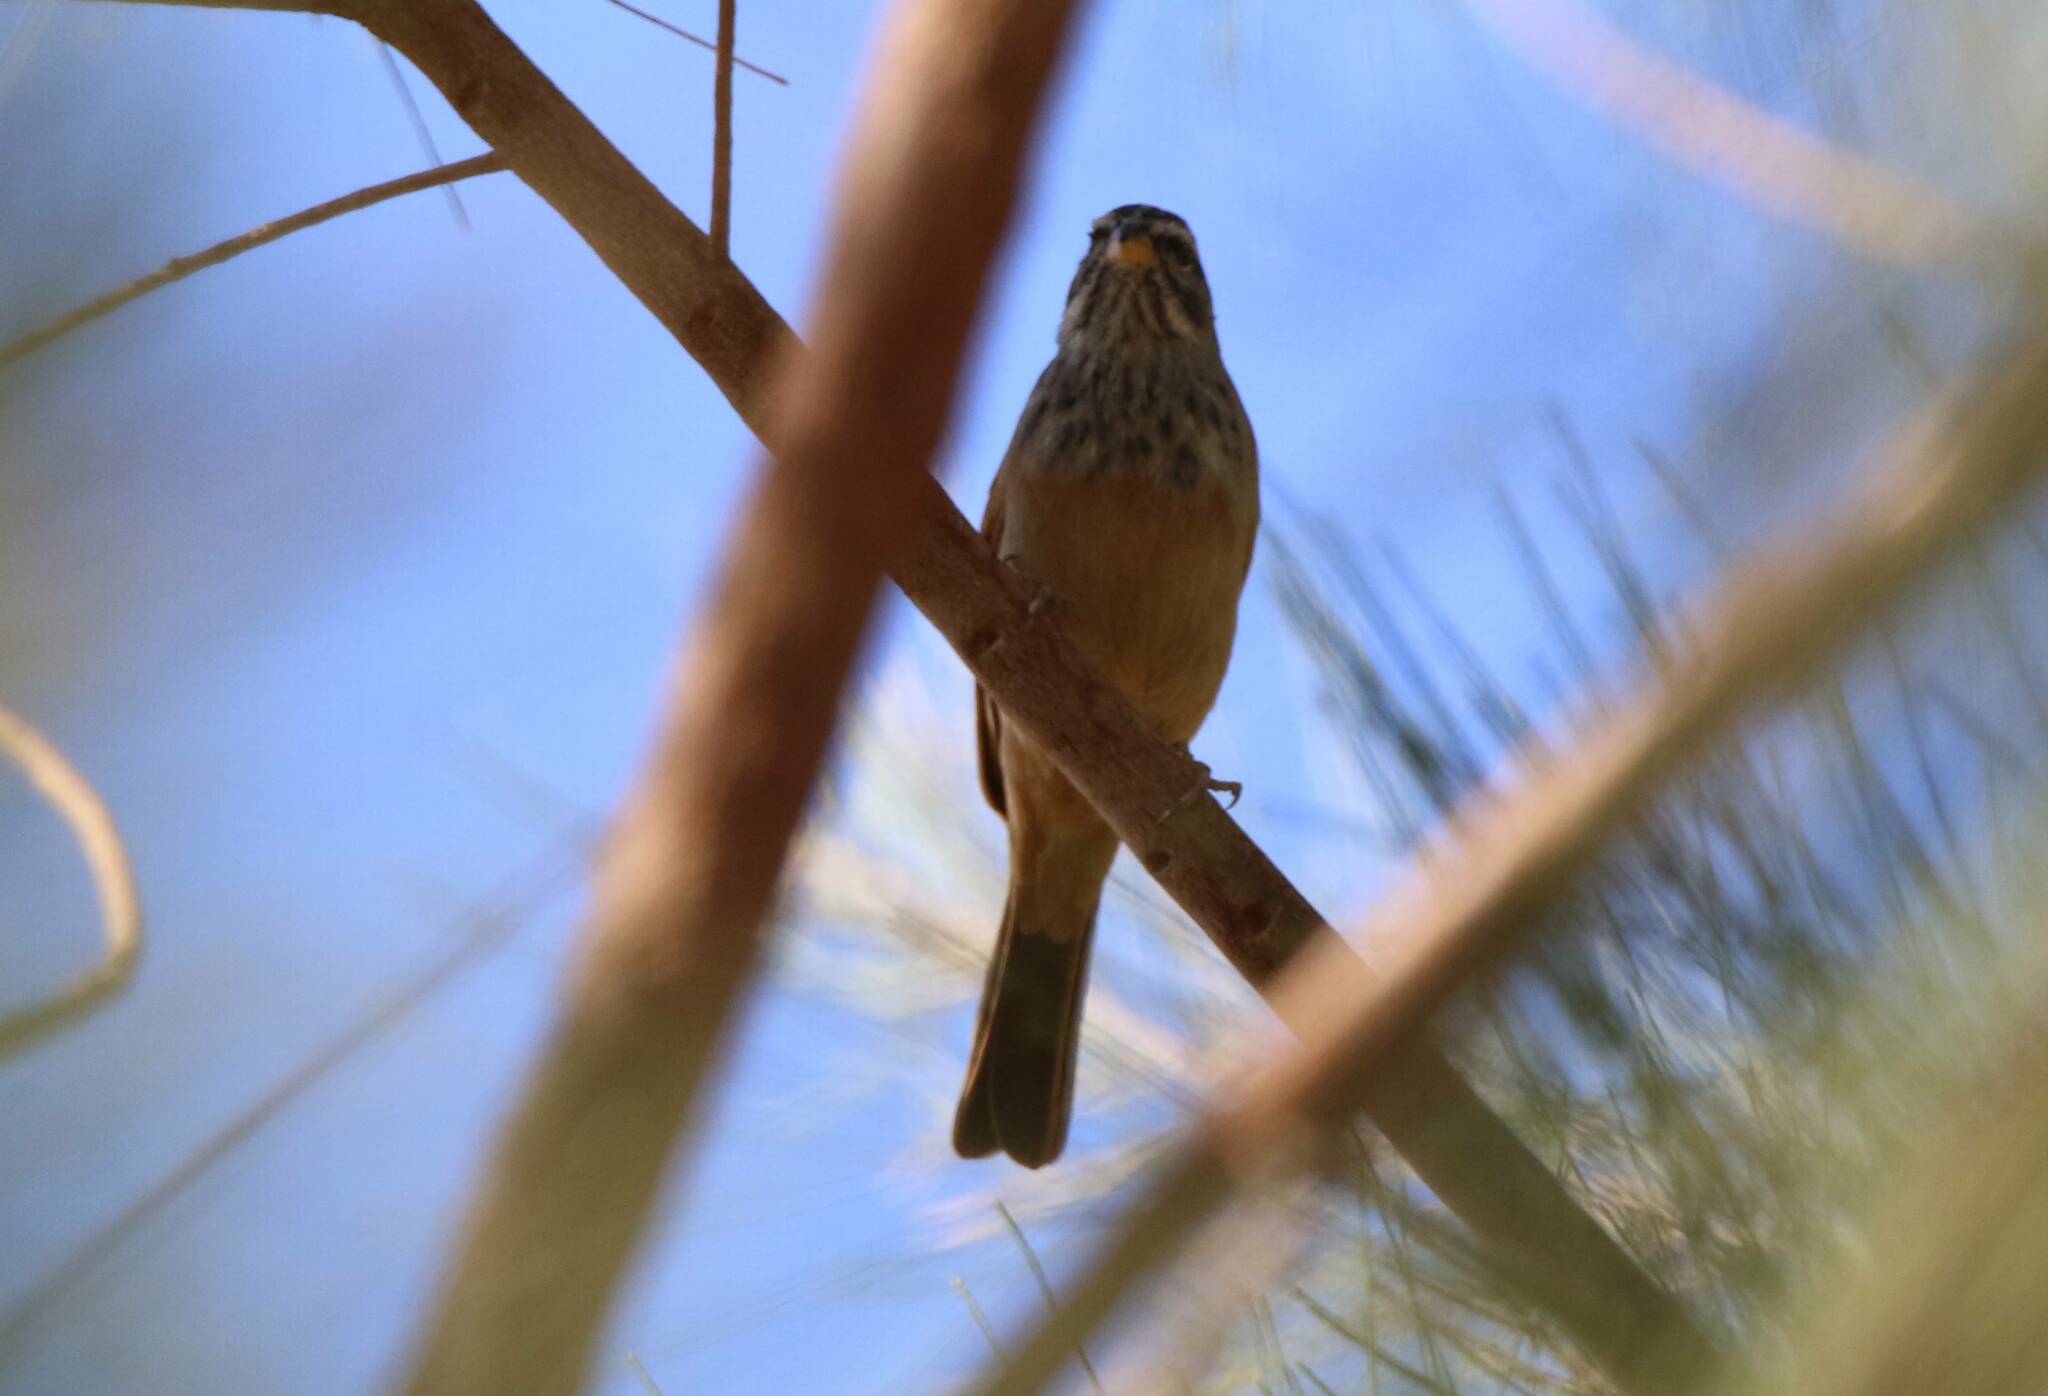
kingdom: Animalia
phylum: Chordata
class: Aves
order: Passeriformes
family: Emberizidae
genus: Emberiza
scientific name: Emberiza sahari
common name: House bunting
